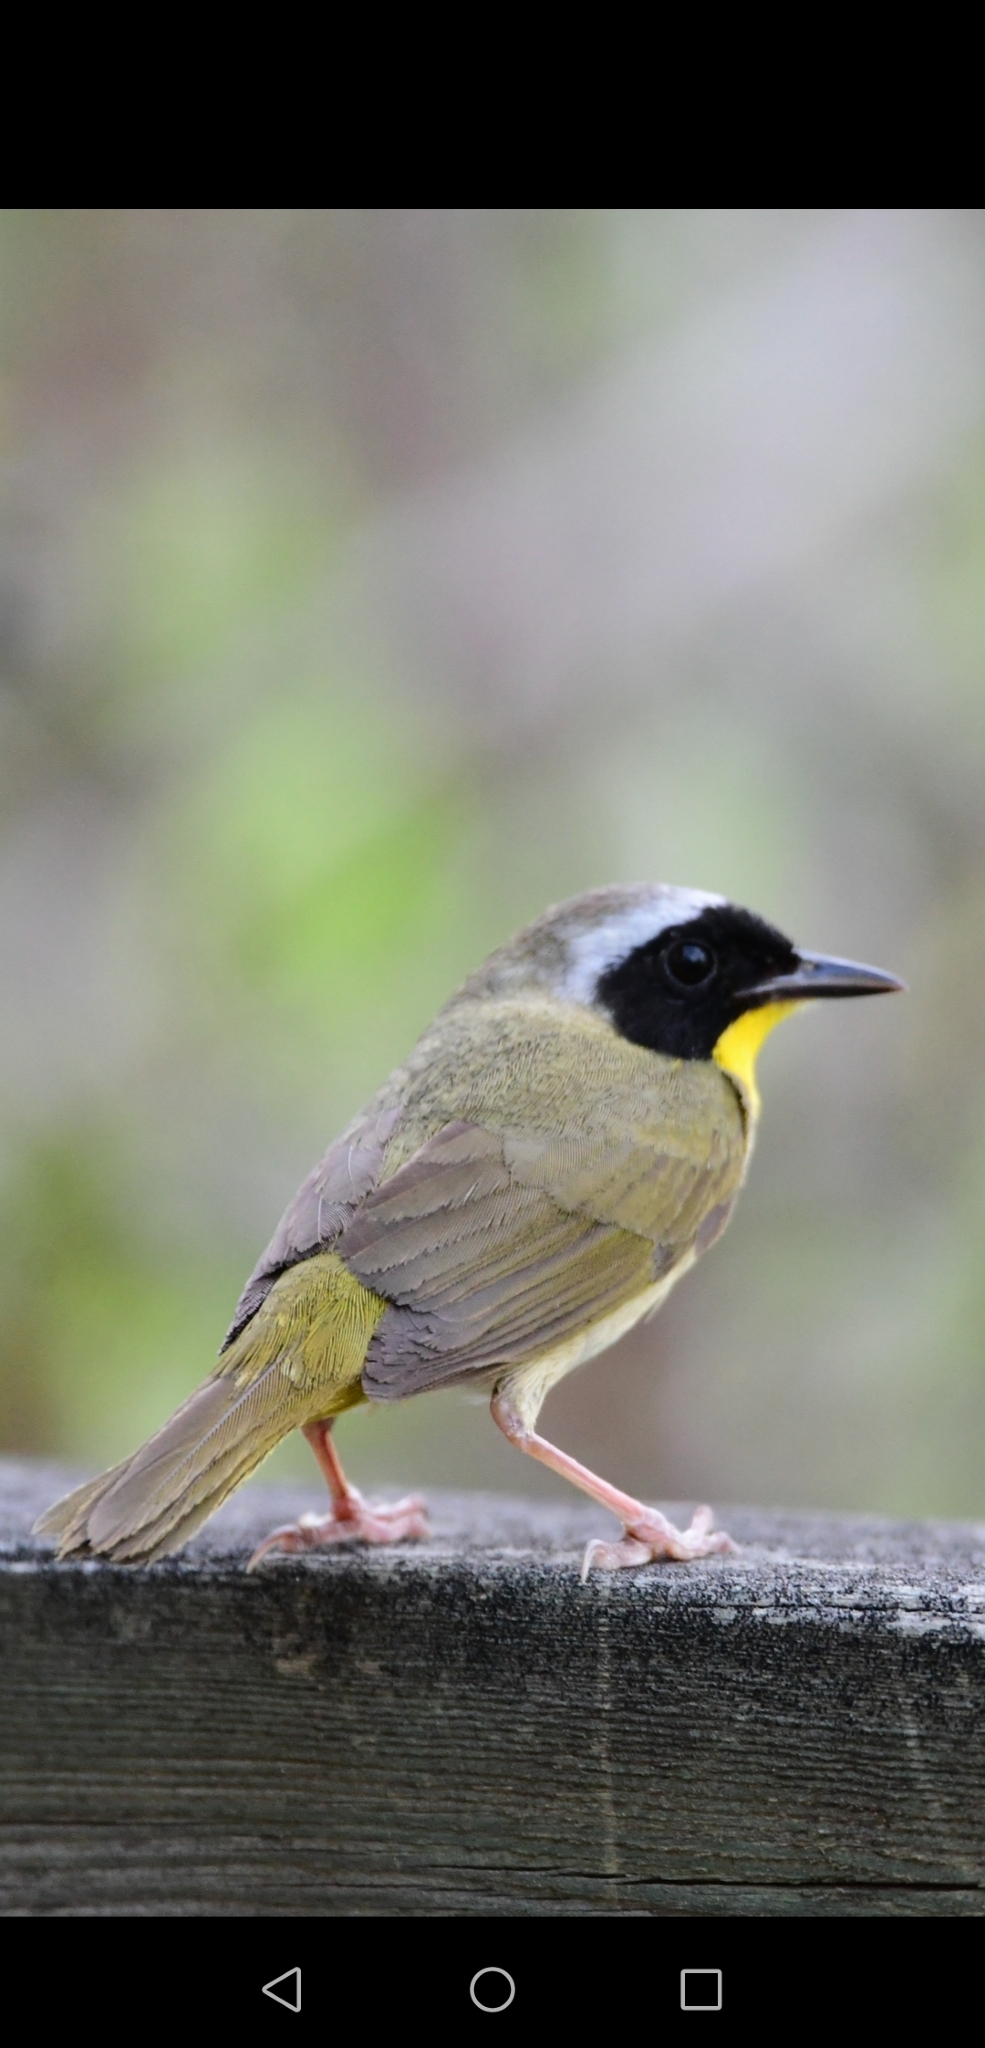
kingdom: Animalia
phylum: Chordata
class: Aves
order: Passeriformes
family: Parulidae
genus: Geothlypis
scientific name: Geothlypis trichas
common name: Common yellowthroat
